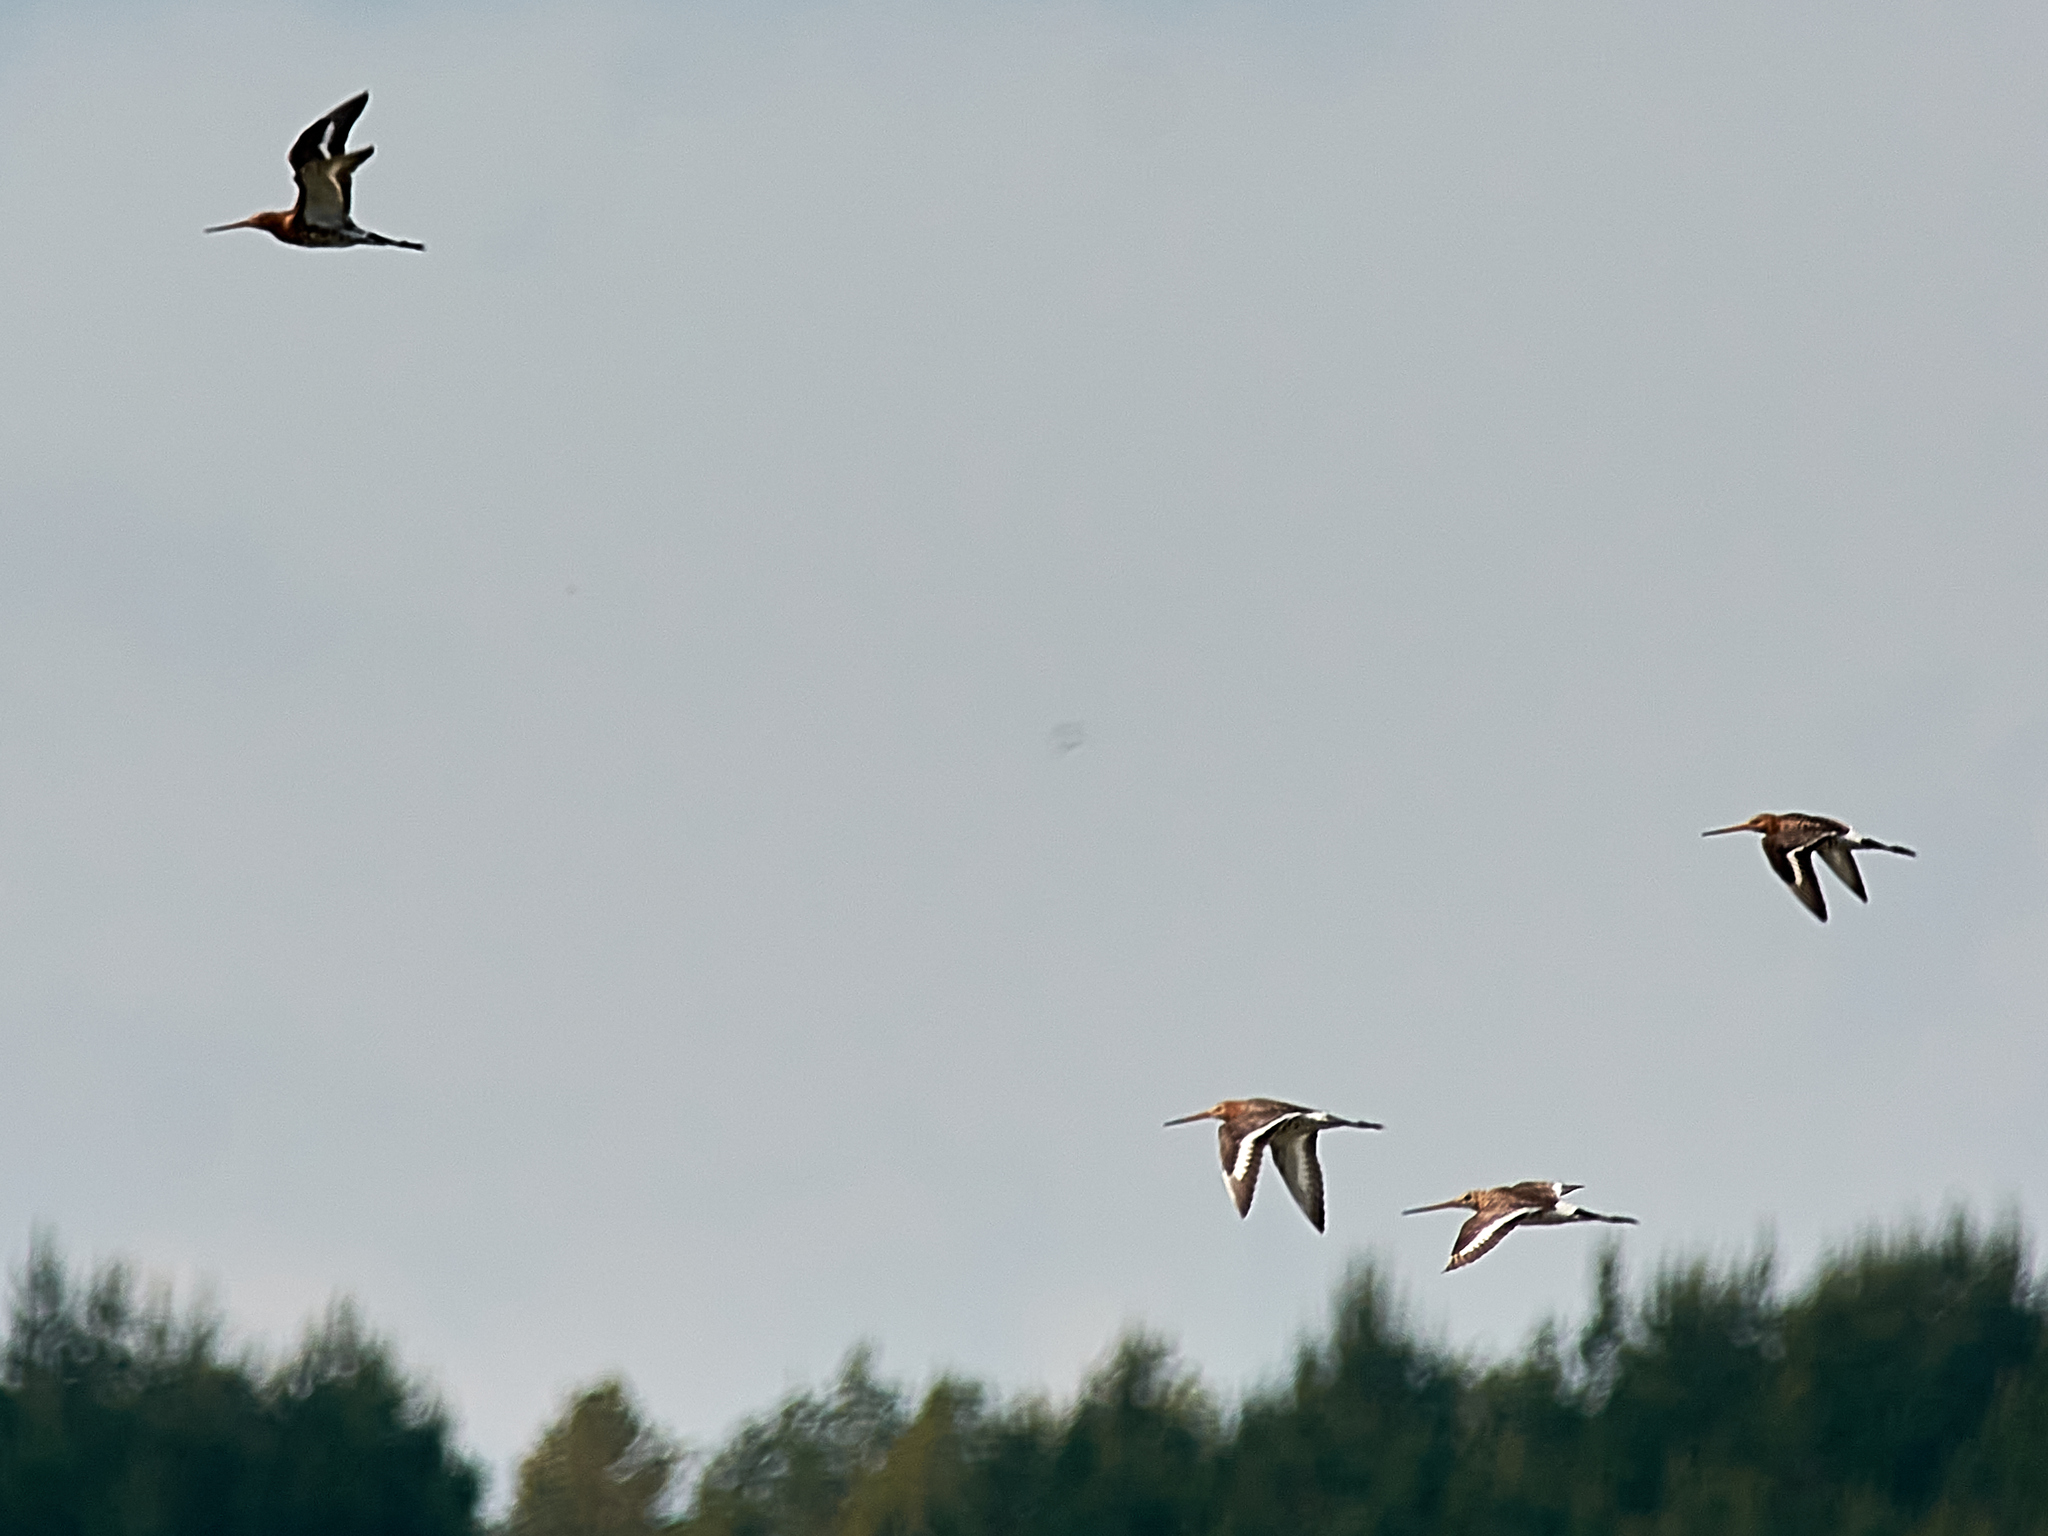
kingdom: Animalia
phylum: Chordata
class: Aves
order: Charadriiformes
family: Scolopacidae
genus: Limosa
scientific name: Limosa limosa
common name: Black-tailed godwit
